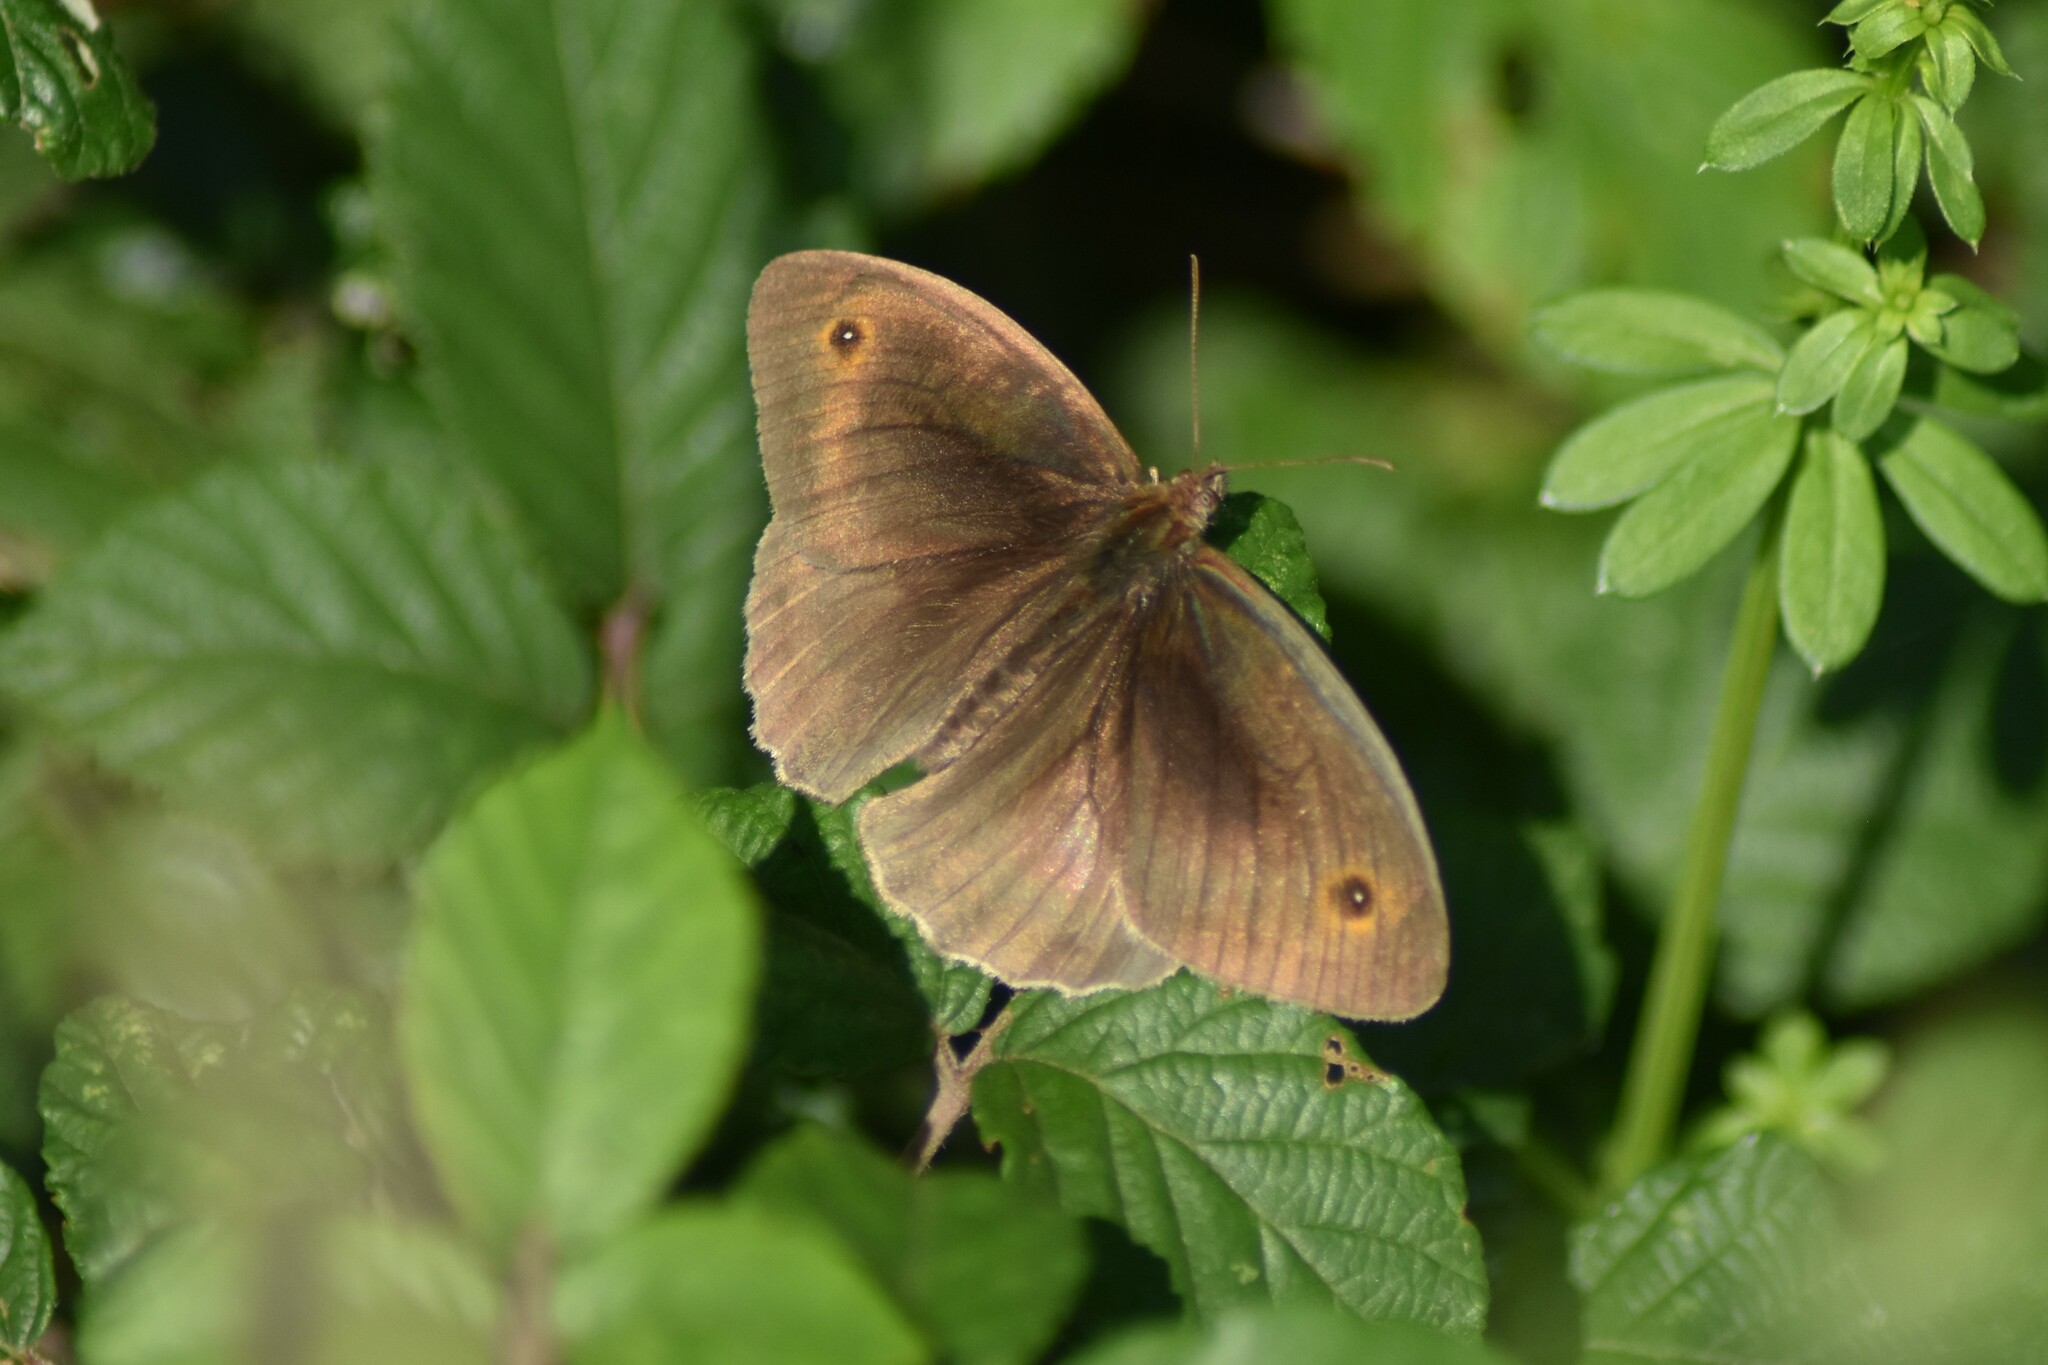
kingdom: Animalia
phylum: Arthropoda
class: Insecta
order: Lepidoptera
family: Nymphalidae
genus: Maniola
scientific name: Maniola jurtina
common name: Meadow brown
